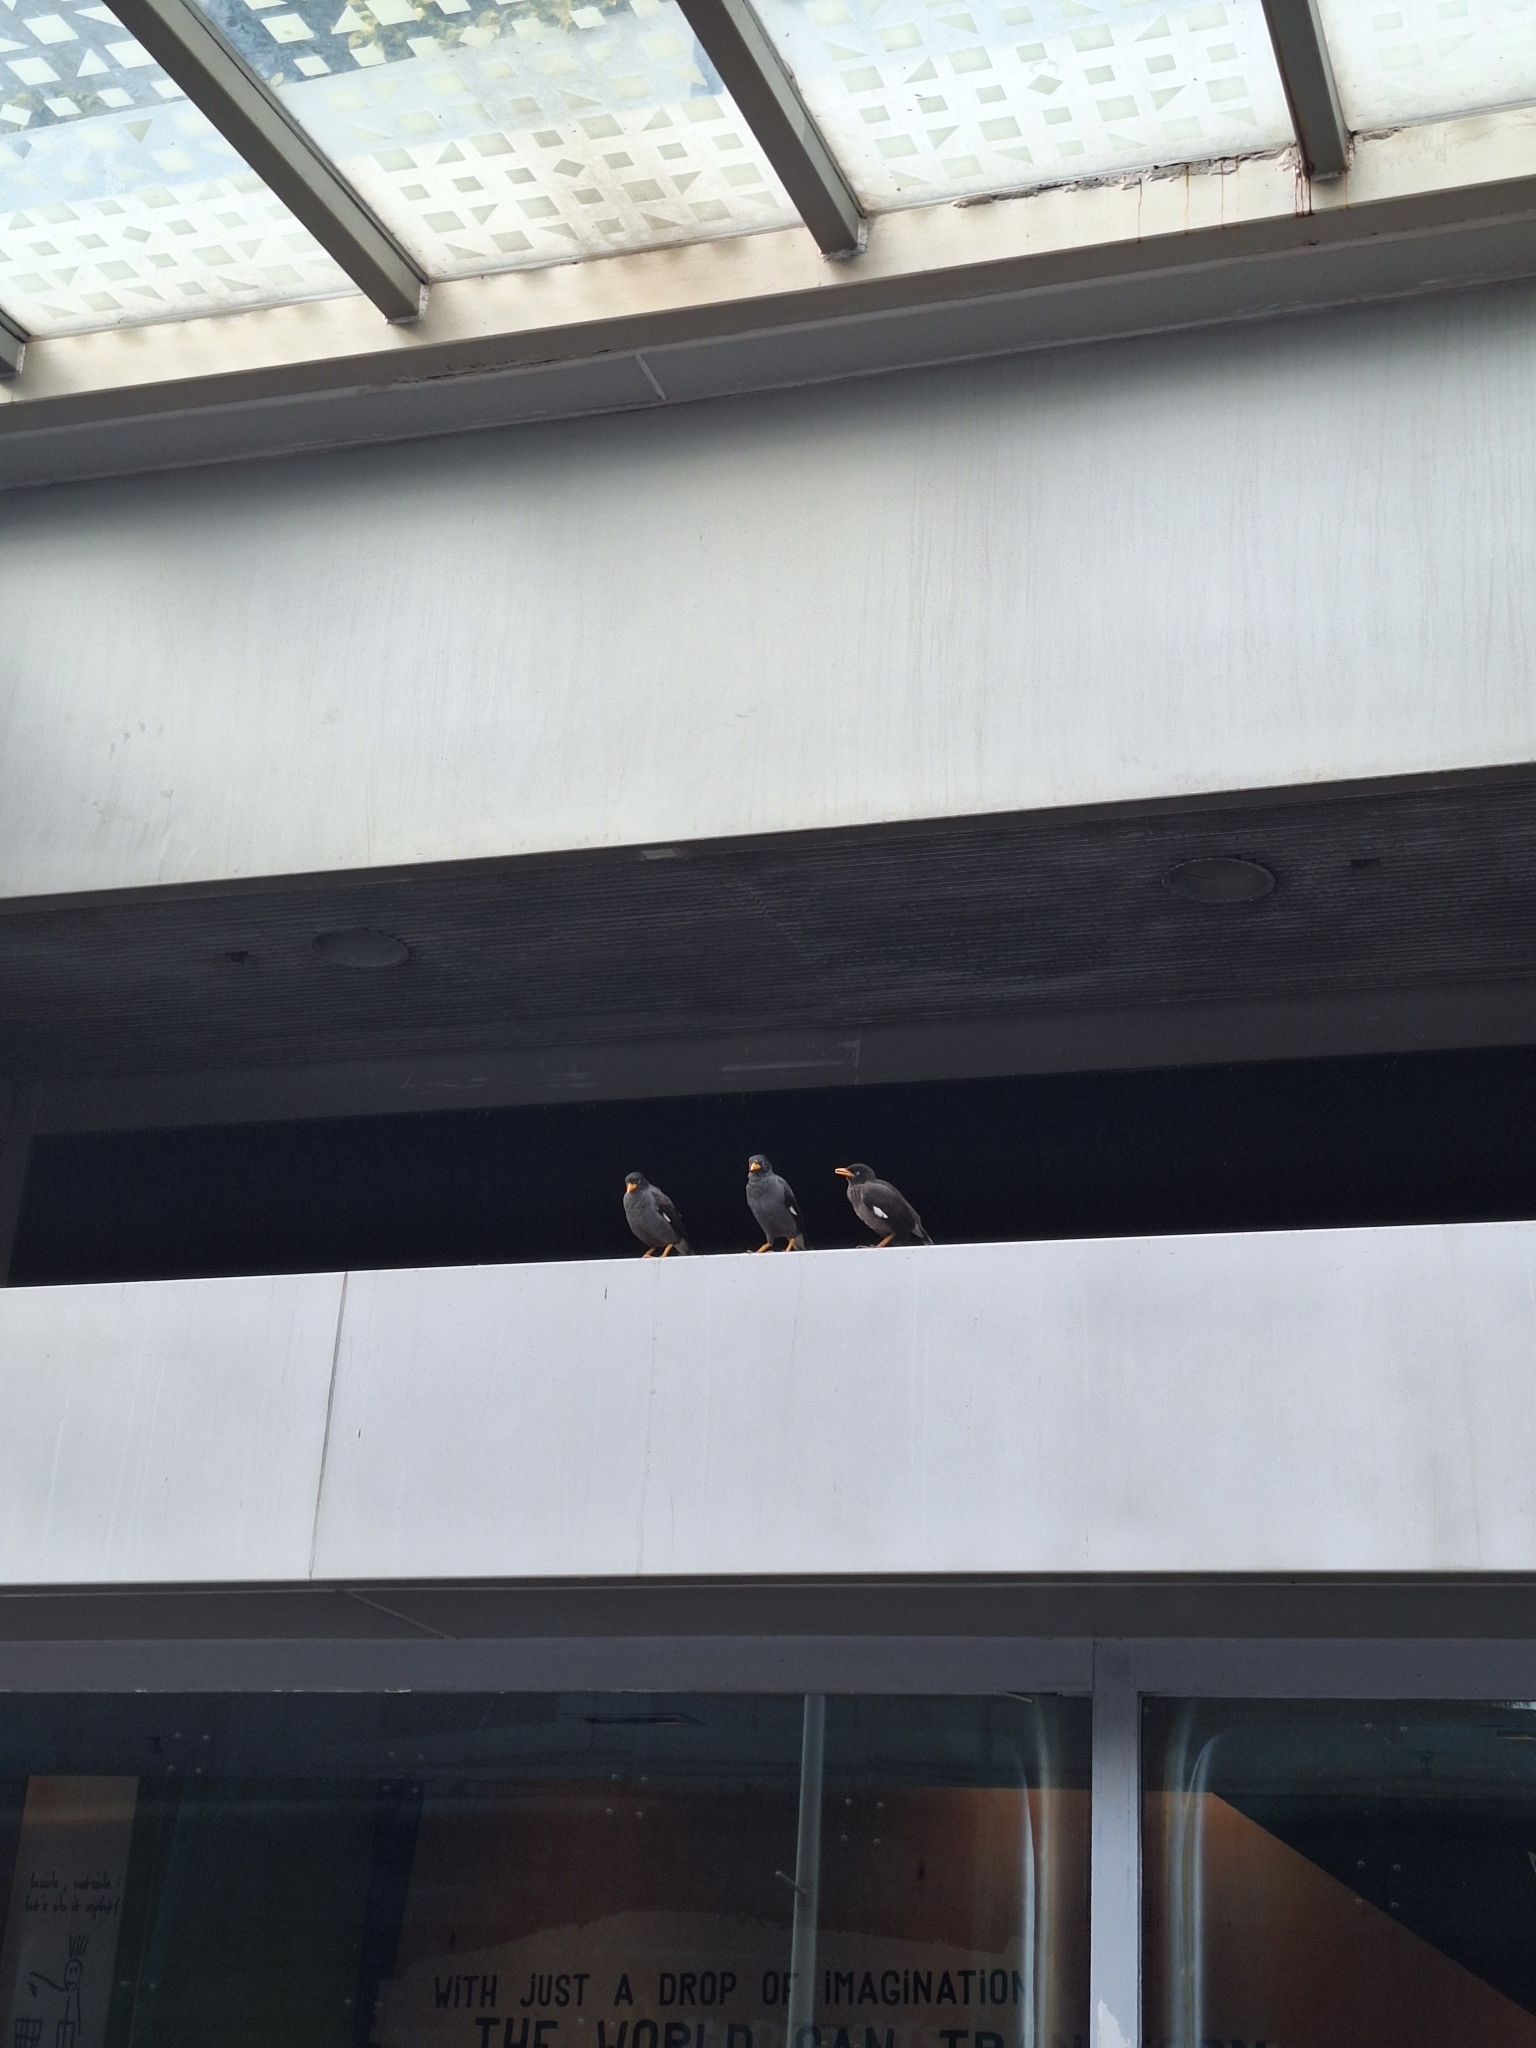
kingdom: Animalia
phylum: Chordata
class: Aves
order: Passeriformes
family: Sturnidae
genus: Acridotheres
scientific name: Acridotheres javanicus
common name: Javan myna
